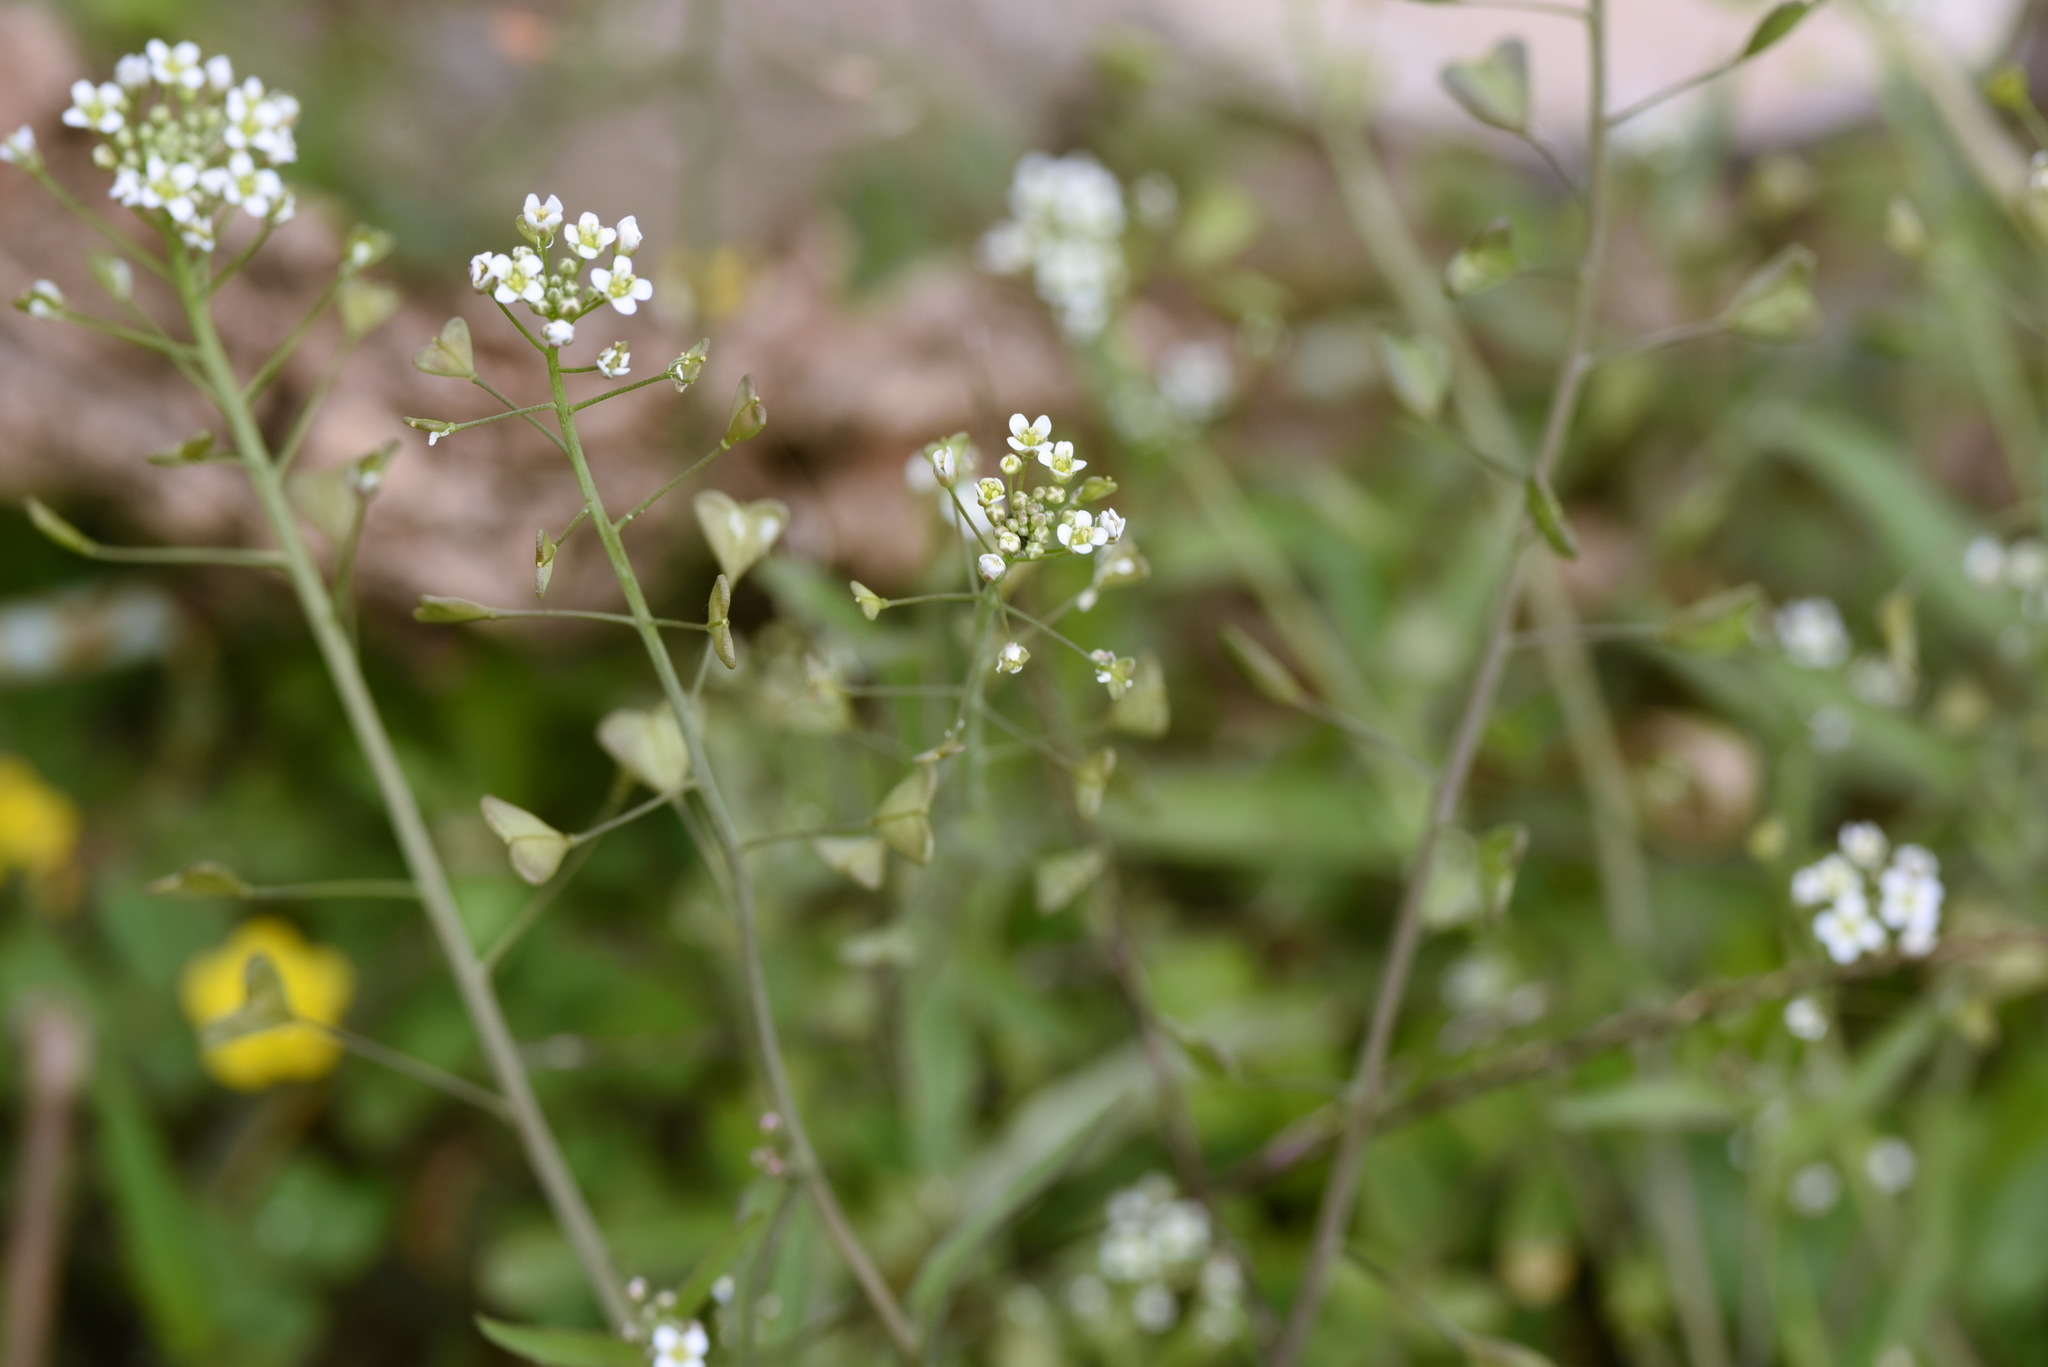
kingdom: Plantae
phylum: Tracheophyta
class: Magnoliopsida
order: Brassicales
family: Brassicaceae
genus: Capsella
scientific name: Capsella bursa-pastoris
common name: Shepherd's purse
